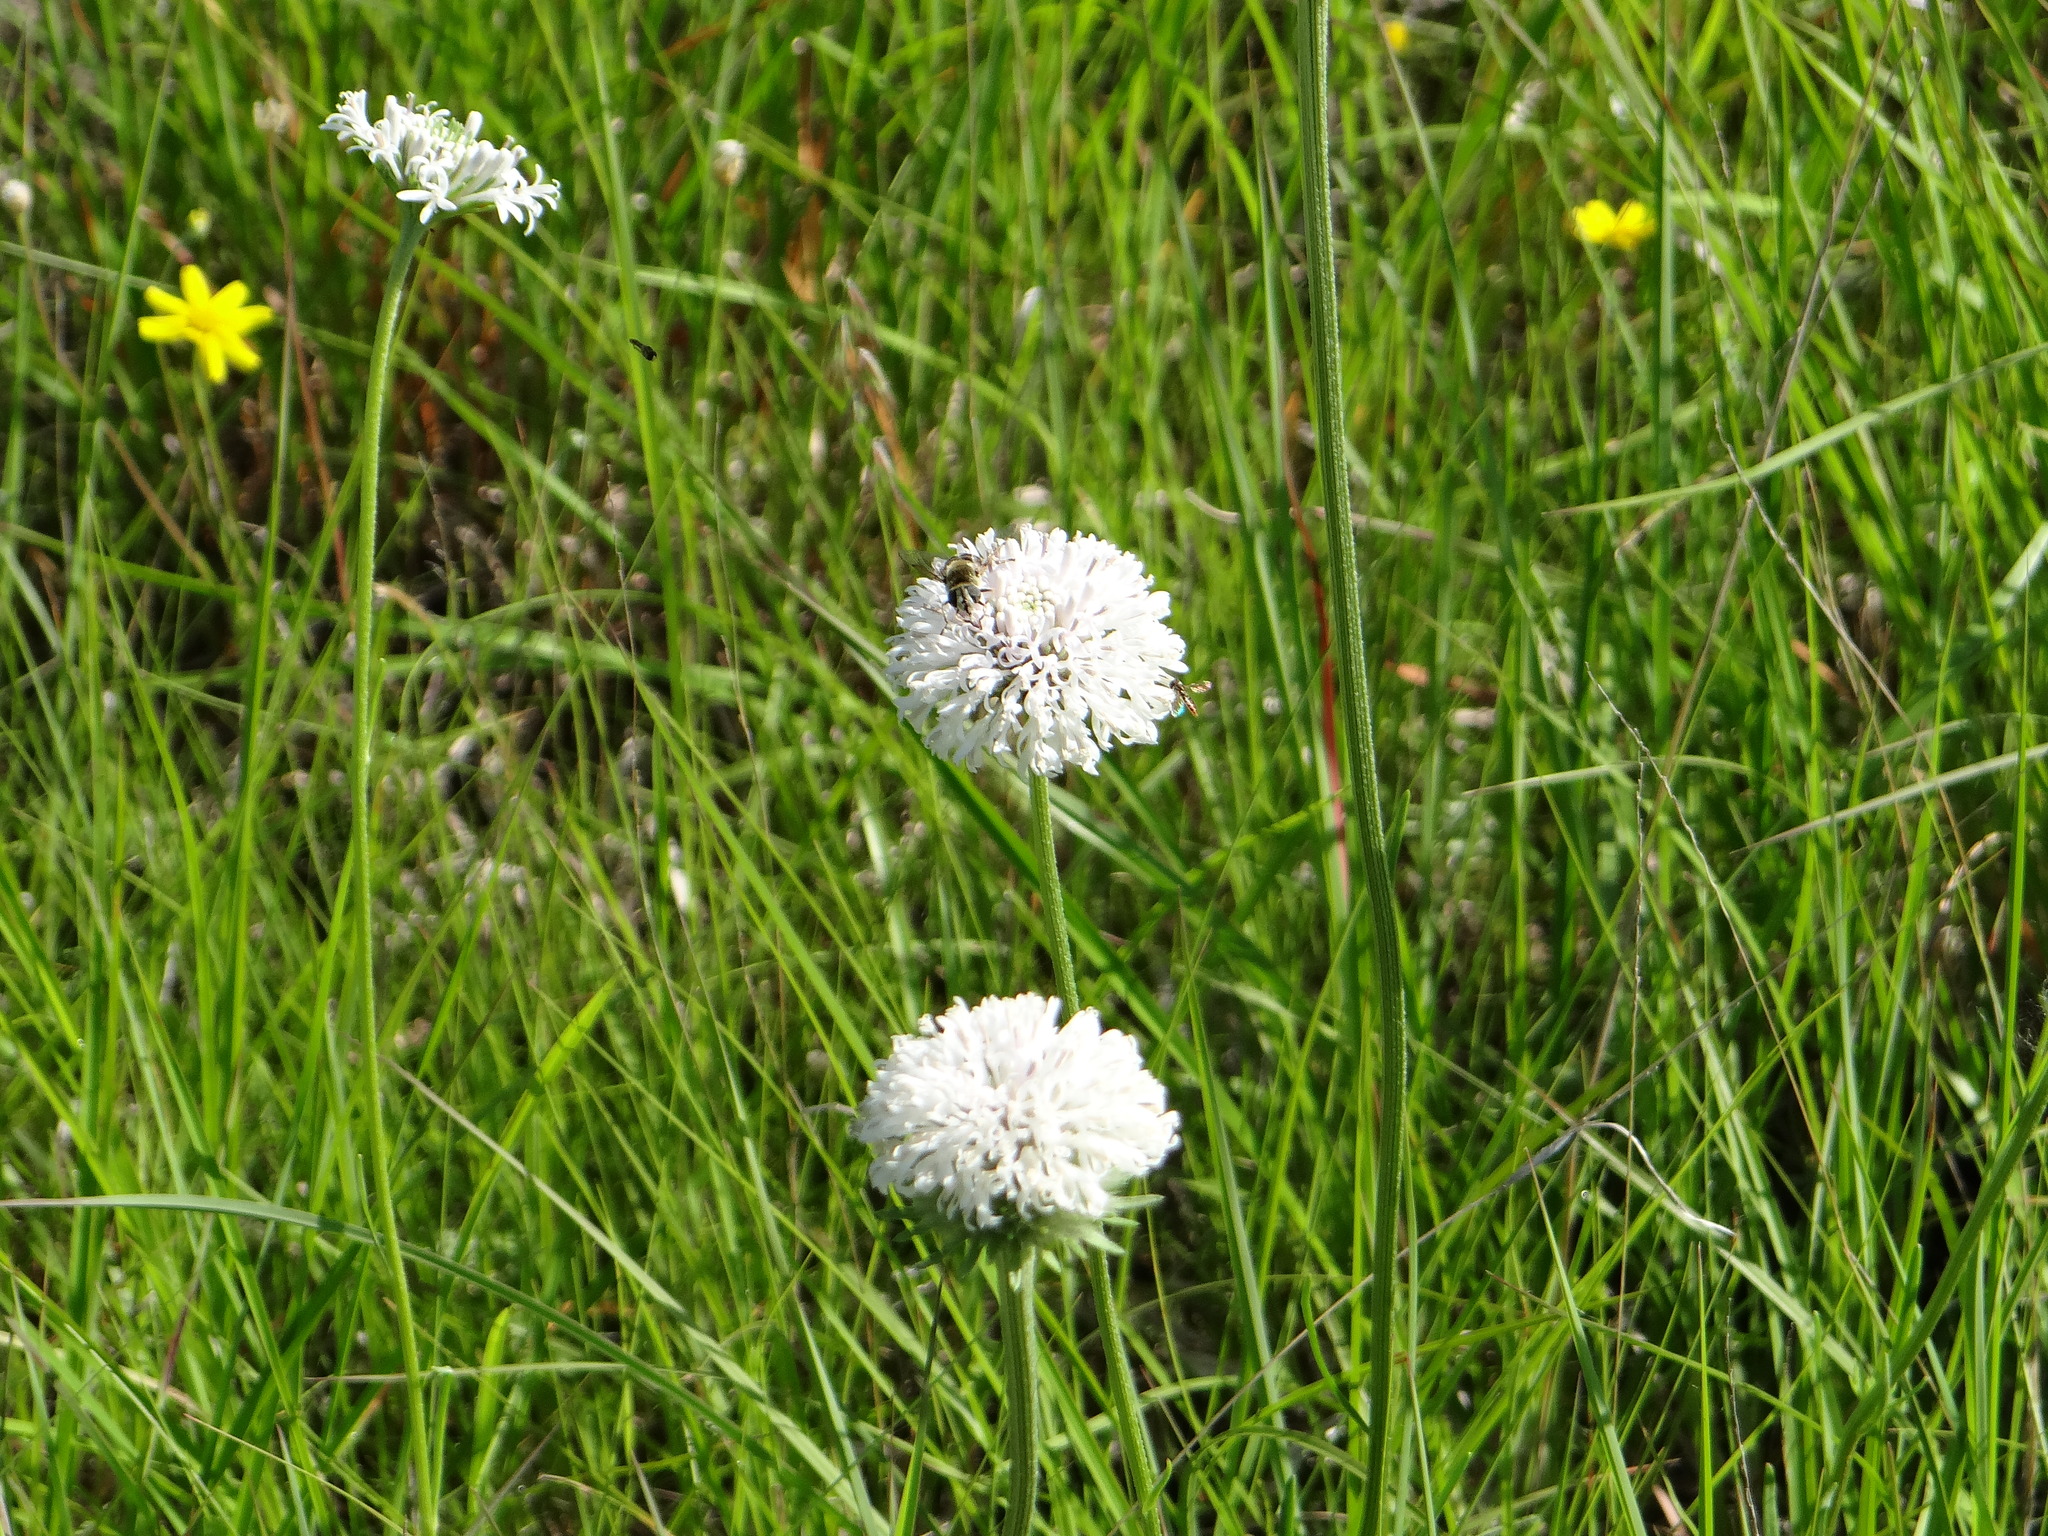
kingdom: Plantae
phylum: Tracheophyta
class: Magnoliopsida
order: Asterales
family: Asteraceae
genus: Marshallia
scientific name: Marshallia caespitosa
